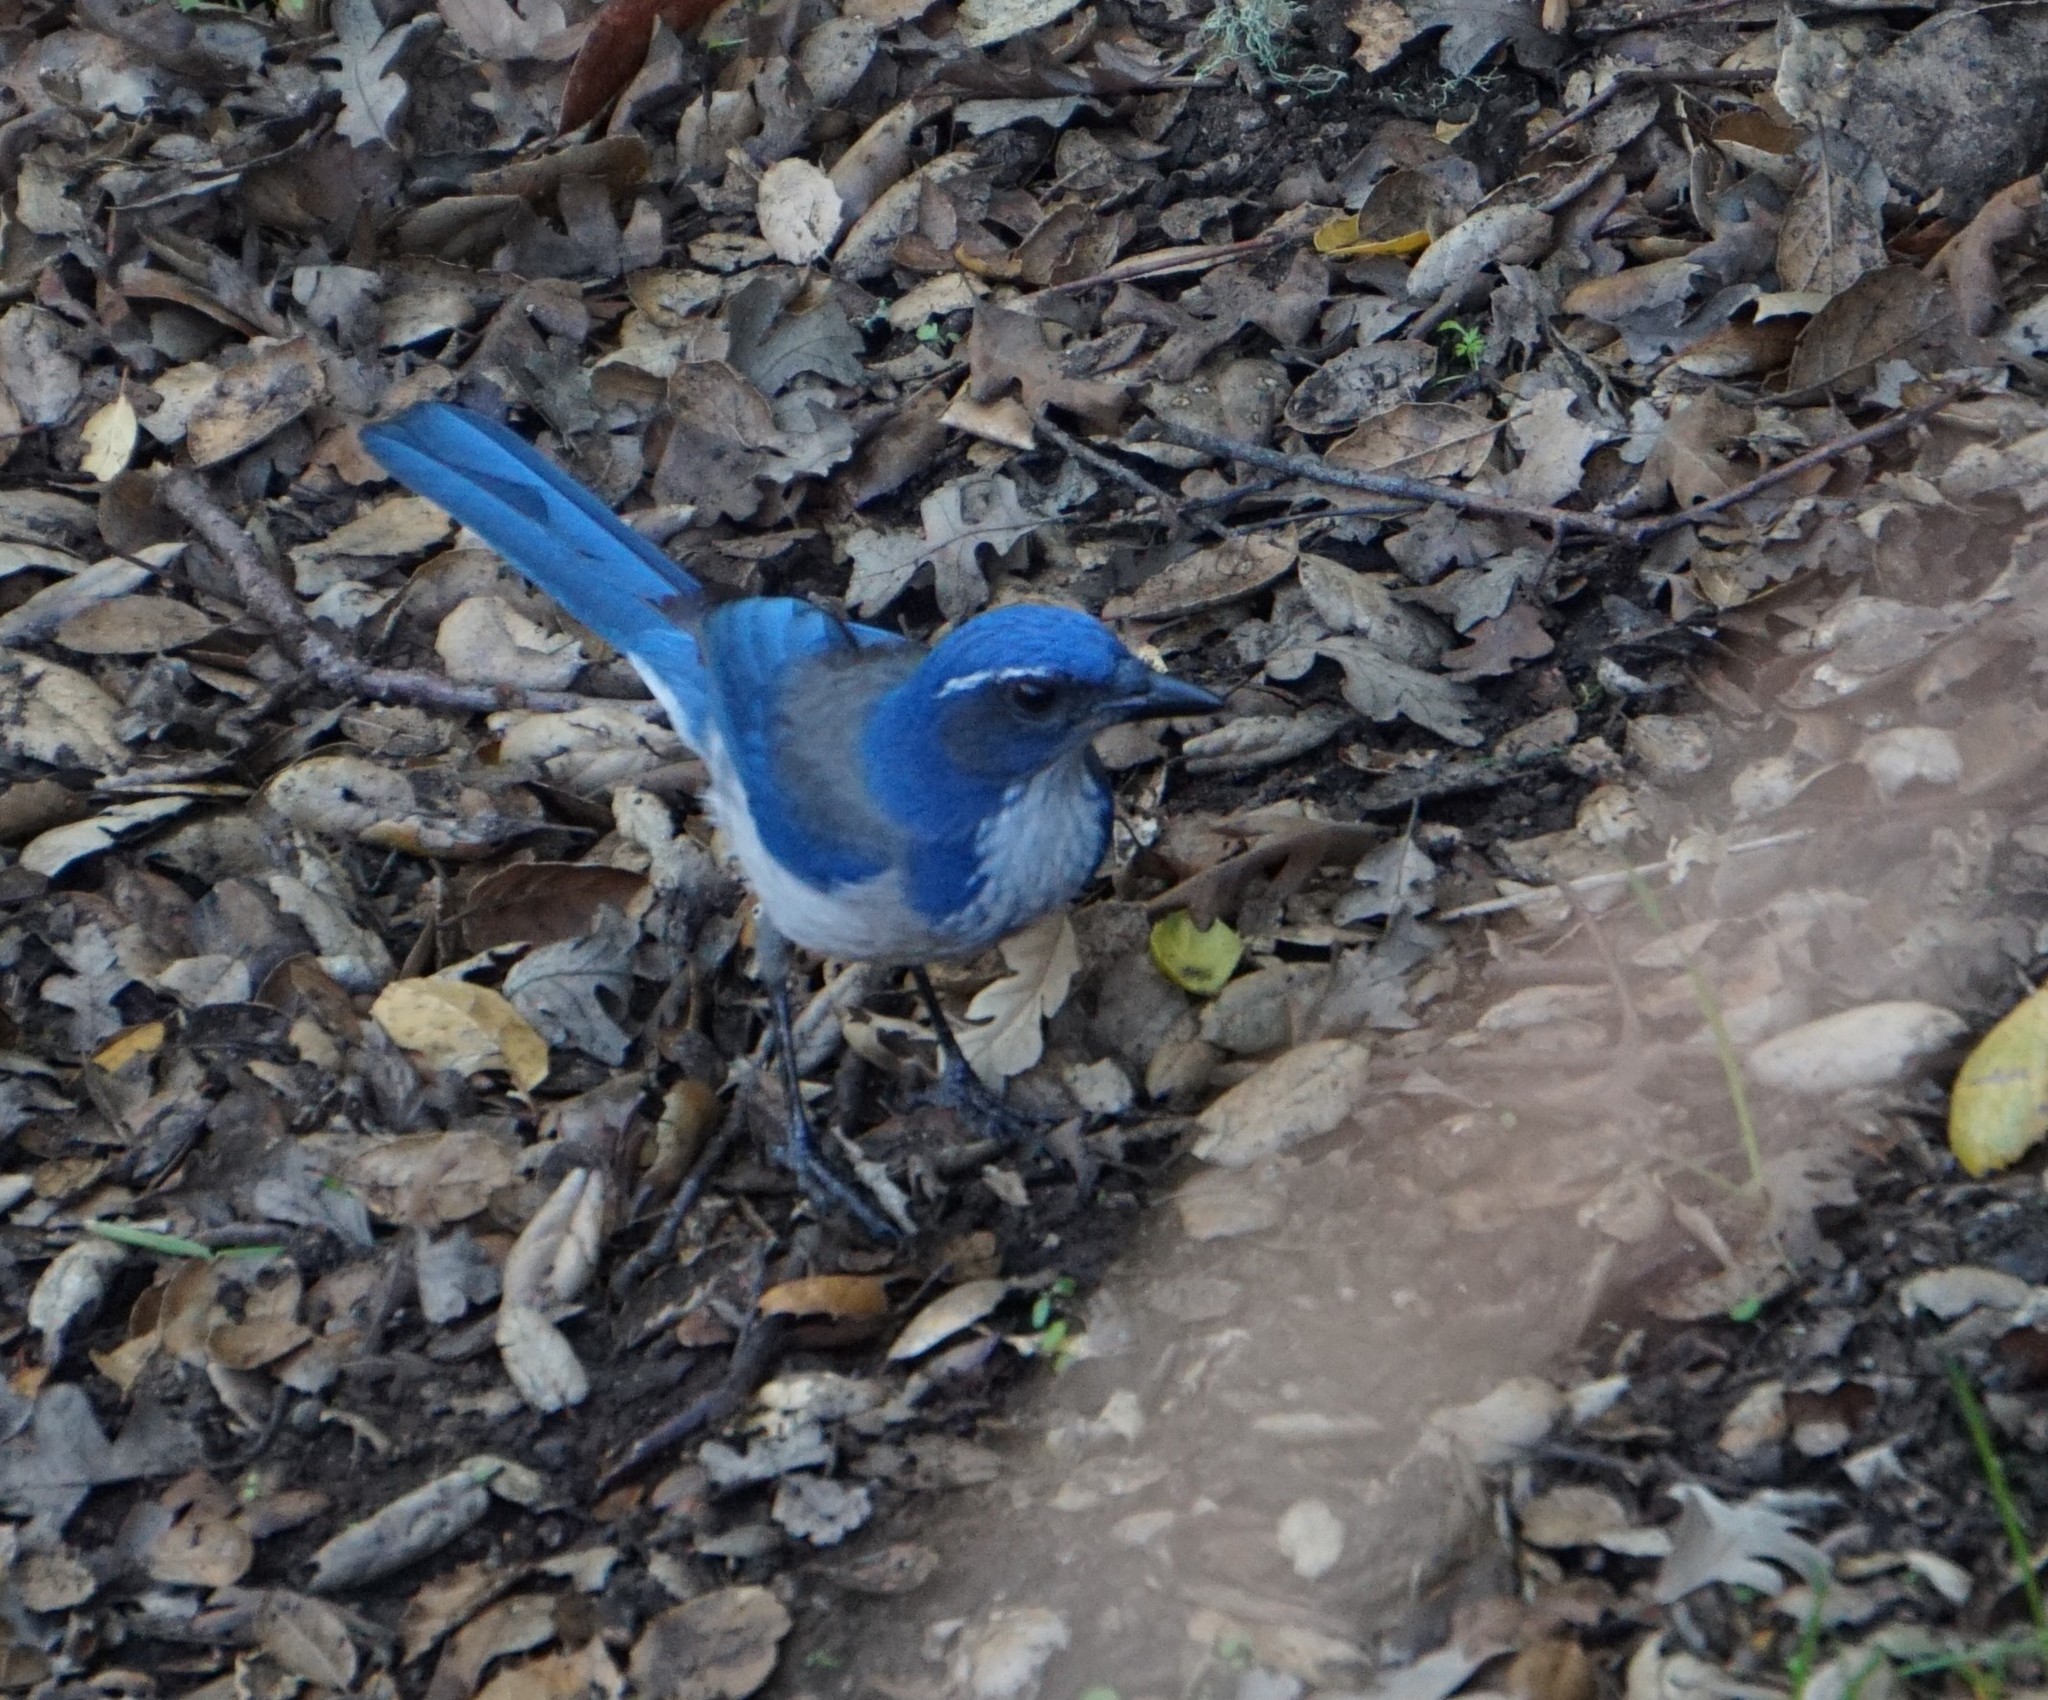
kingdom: Animalia
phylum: Chordata
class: Aves
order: Passeriformes
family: Corvidae
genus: Aphelocoma
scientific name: Aphelocoma californica
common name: California scrub-jay
